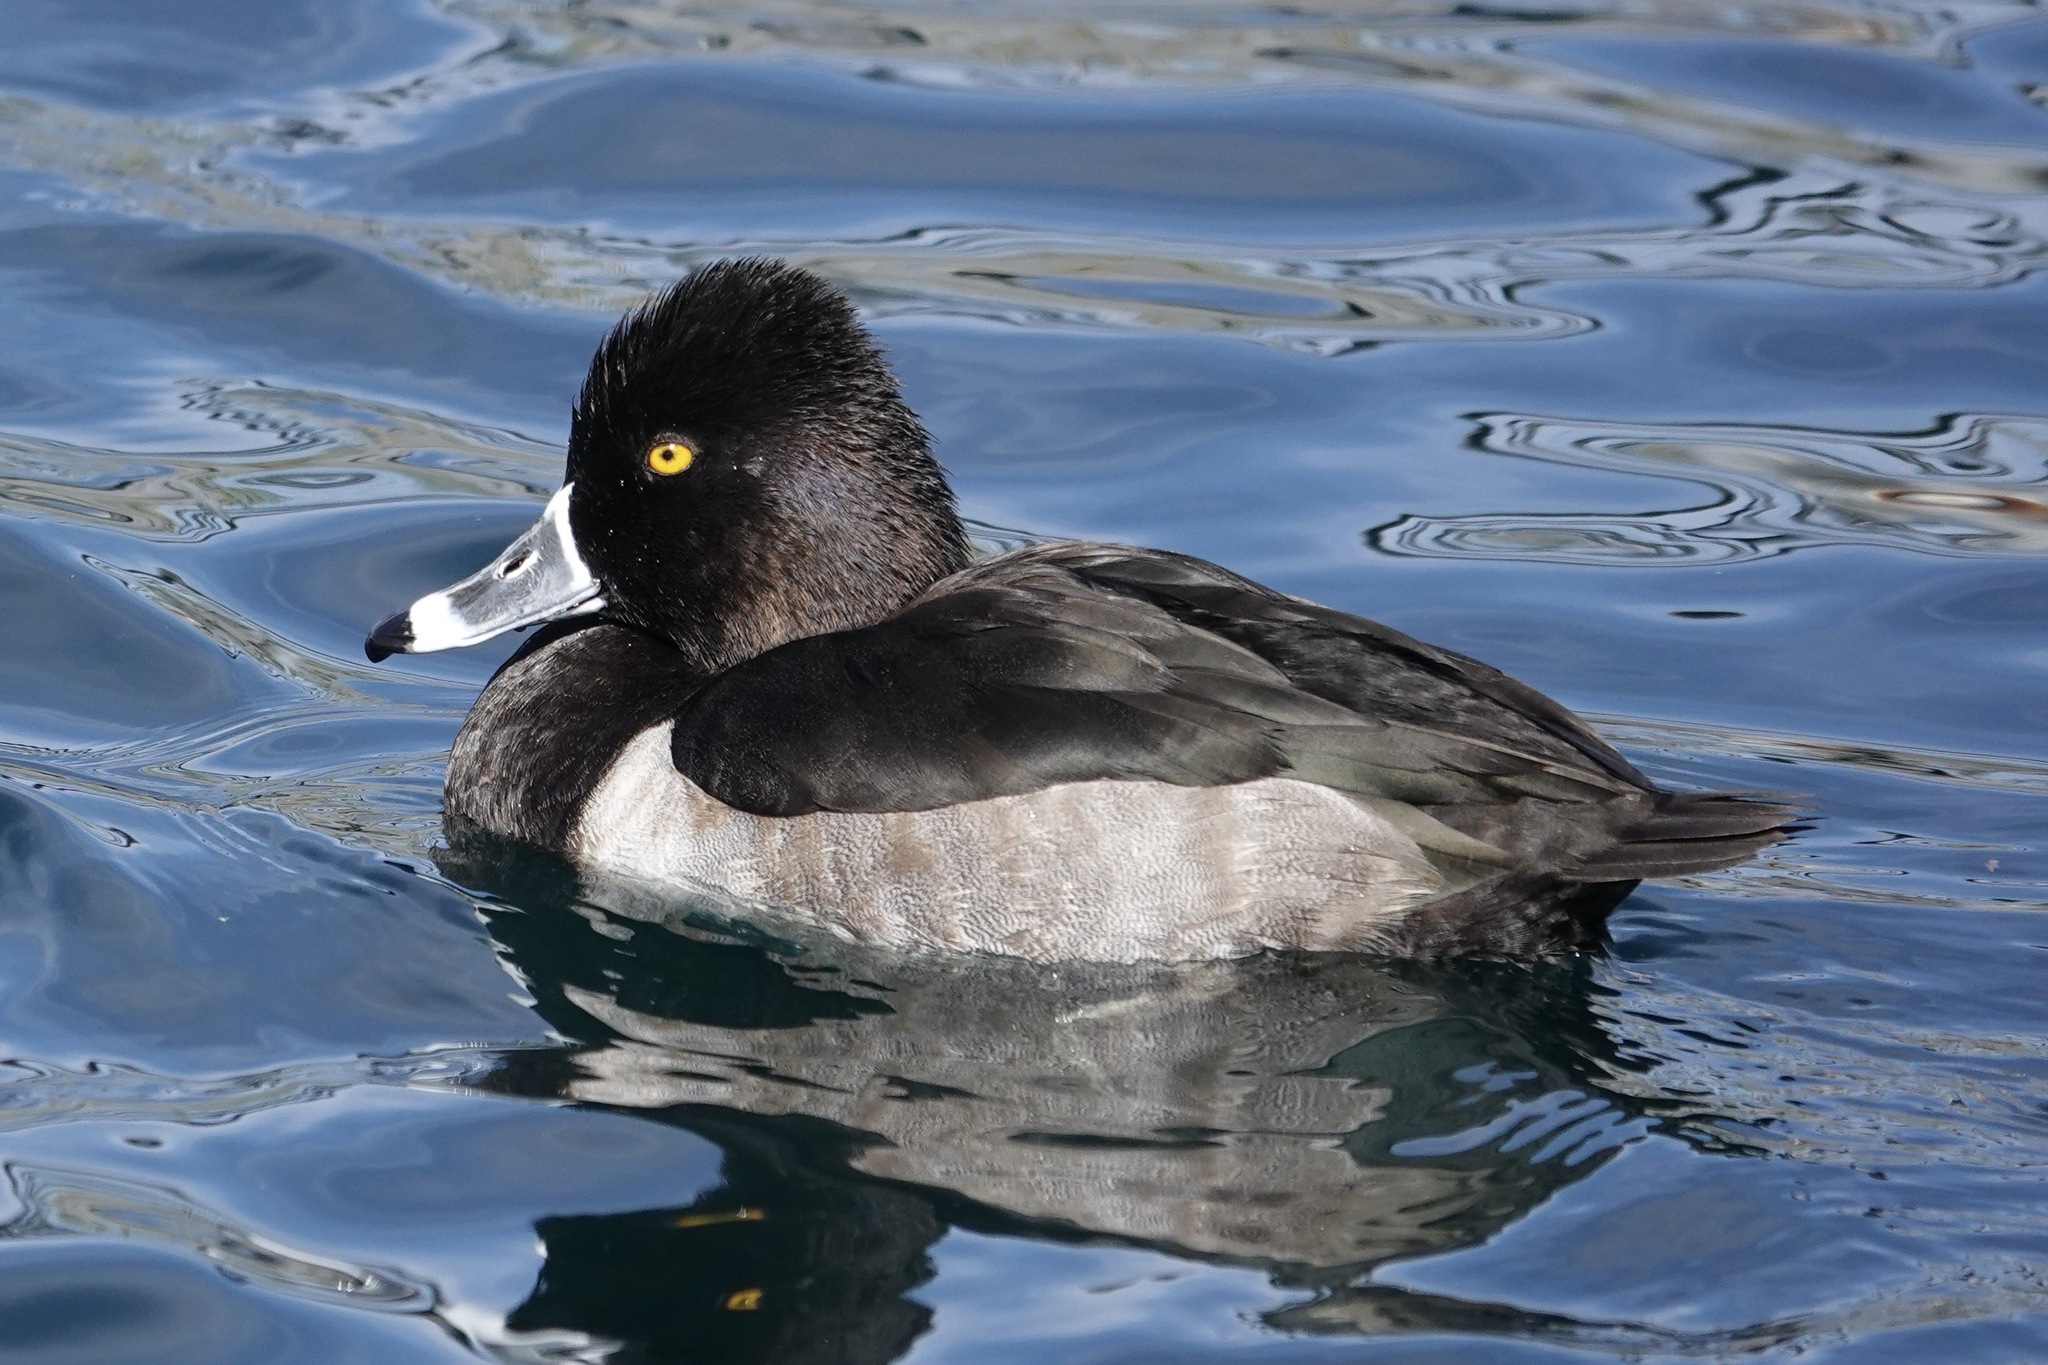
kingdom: Animalia
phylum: Chordata
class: Aves
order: Anseriformes
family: Anatidae
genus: Aythya
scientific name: Aythya collaris
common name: Ring-necked duck
